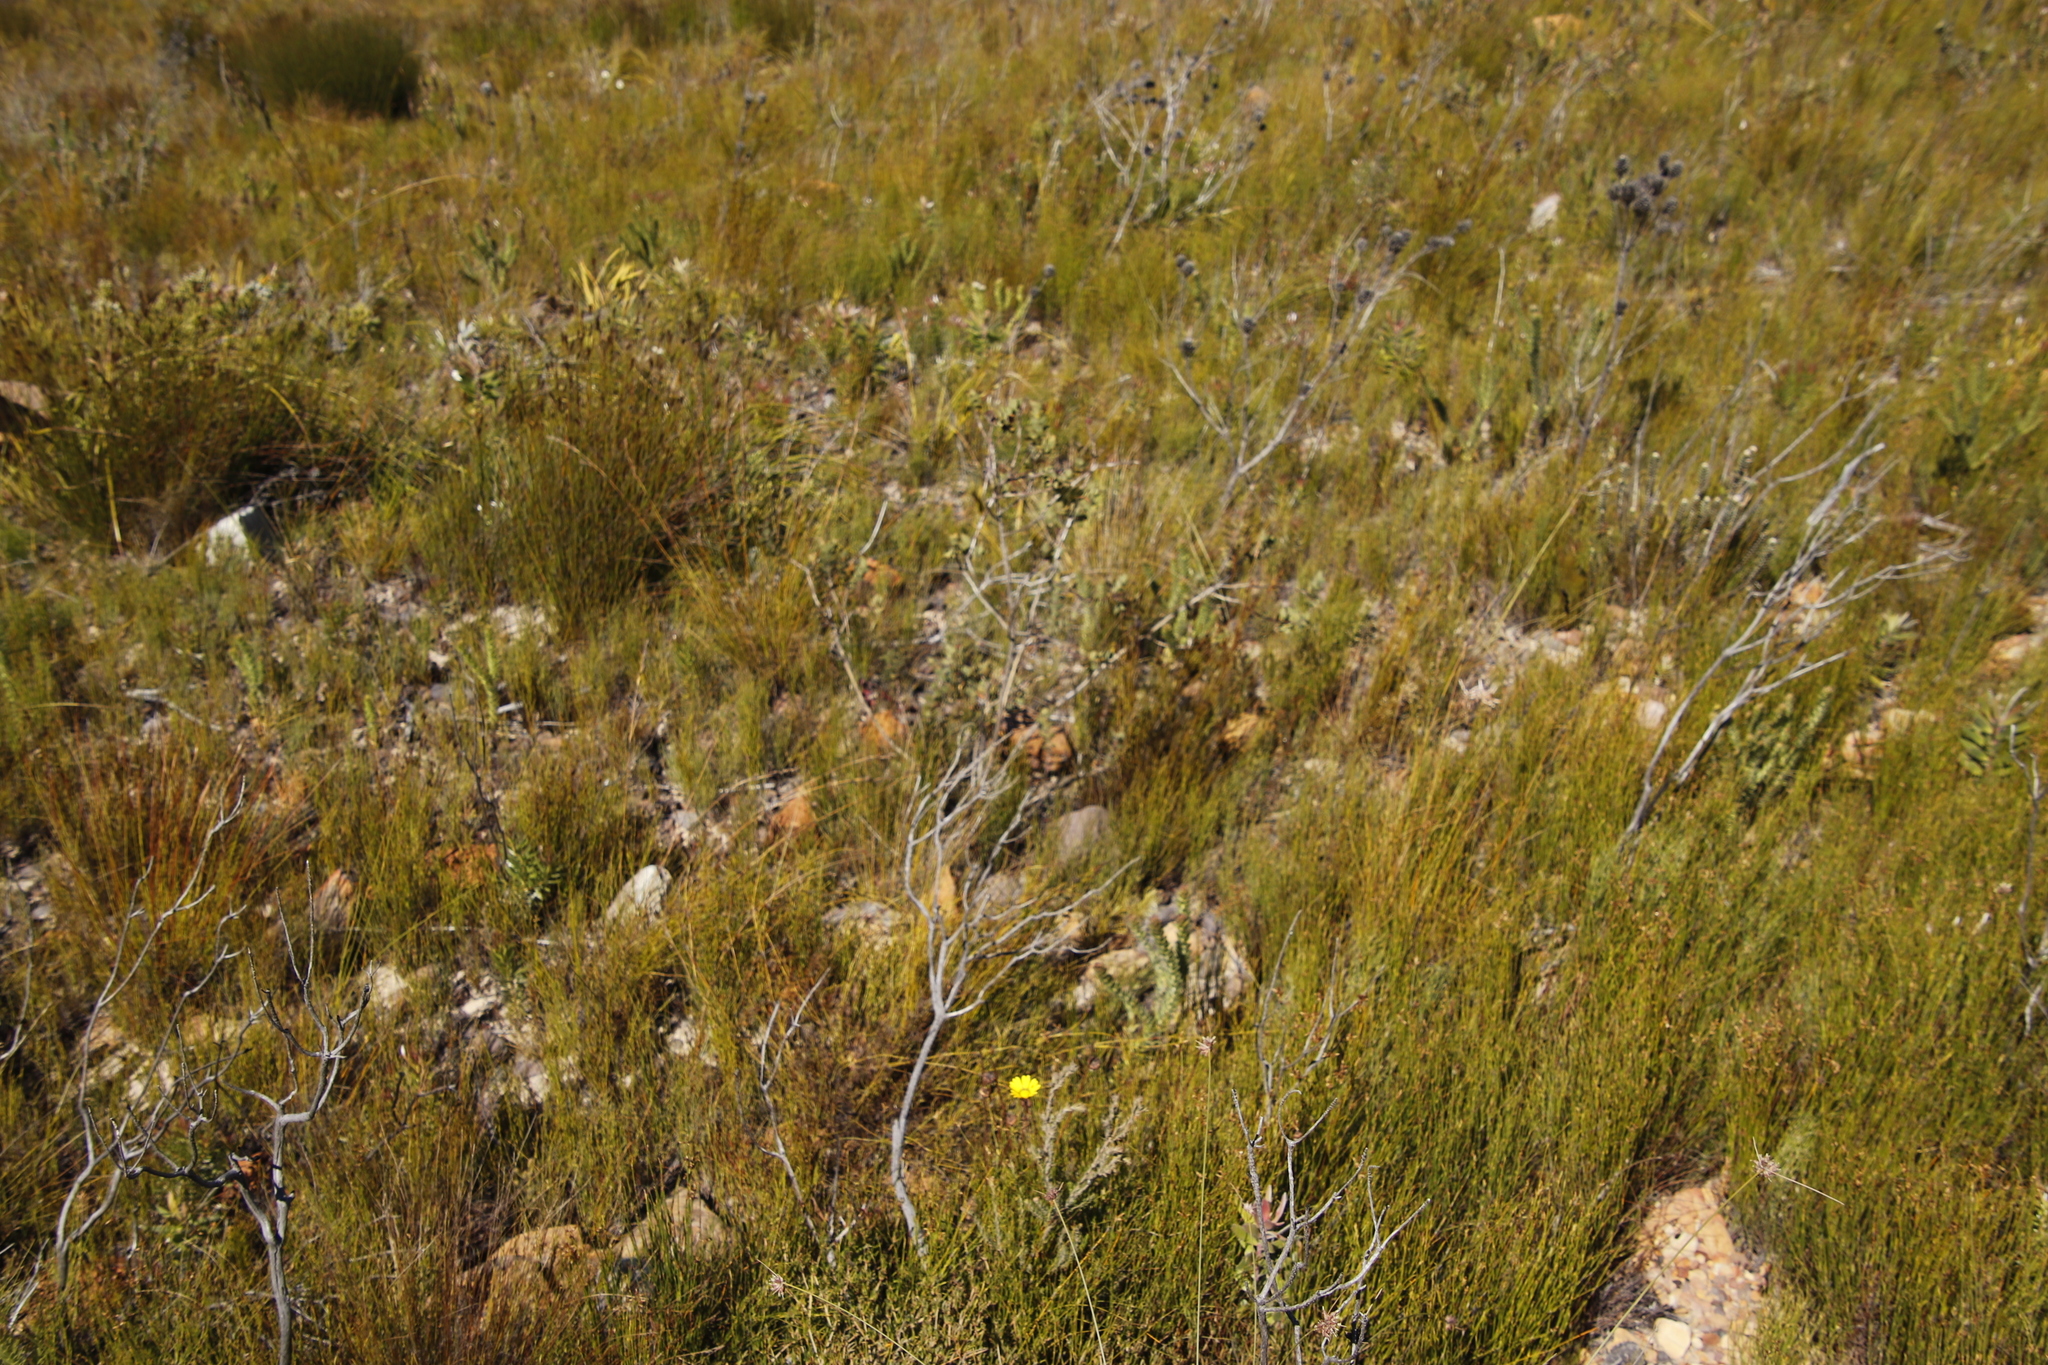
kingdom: Plantae
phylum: Tracheophyta
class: Magnoliopsida
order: Fabales
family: Fabaceae
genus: Aspalathus
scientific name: Aspalathus crenata
